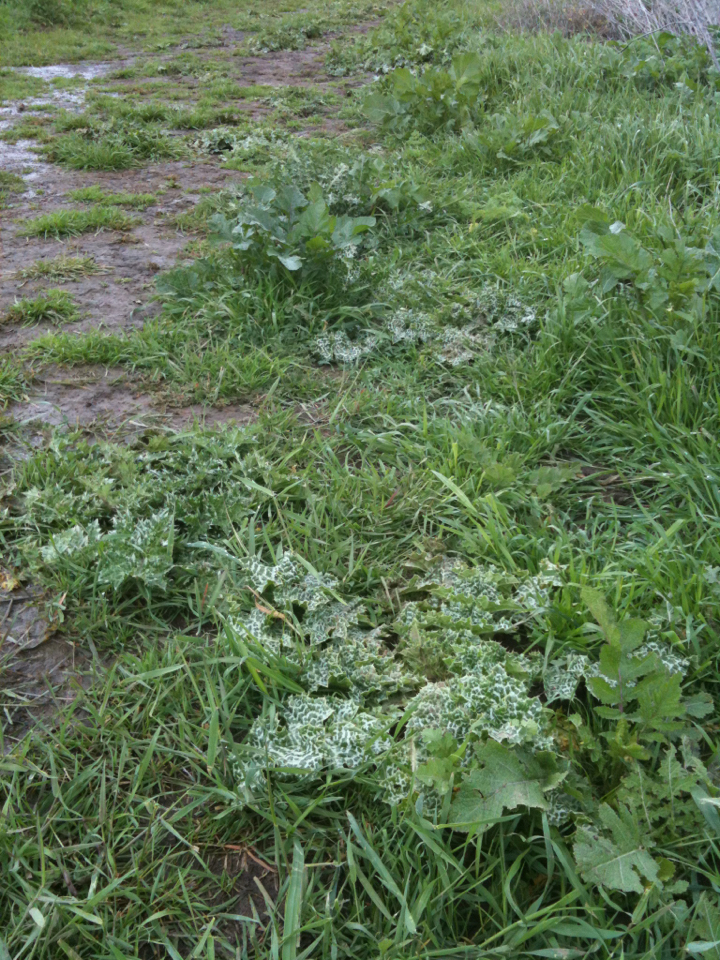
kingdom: Plantae
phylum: Tracheophyta
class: Magnoliopsida
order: Asterales
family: Asteraceae
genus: Silybum
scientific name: Silybum marianum
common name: Milk thistle
